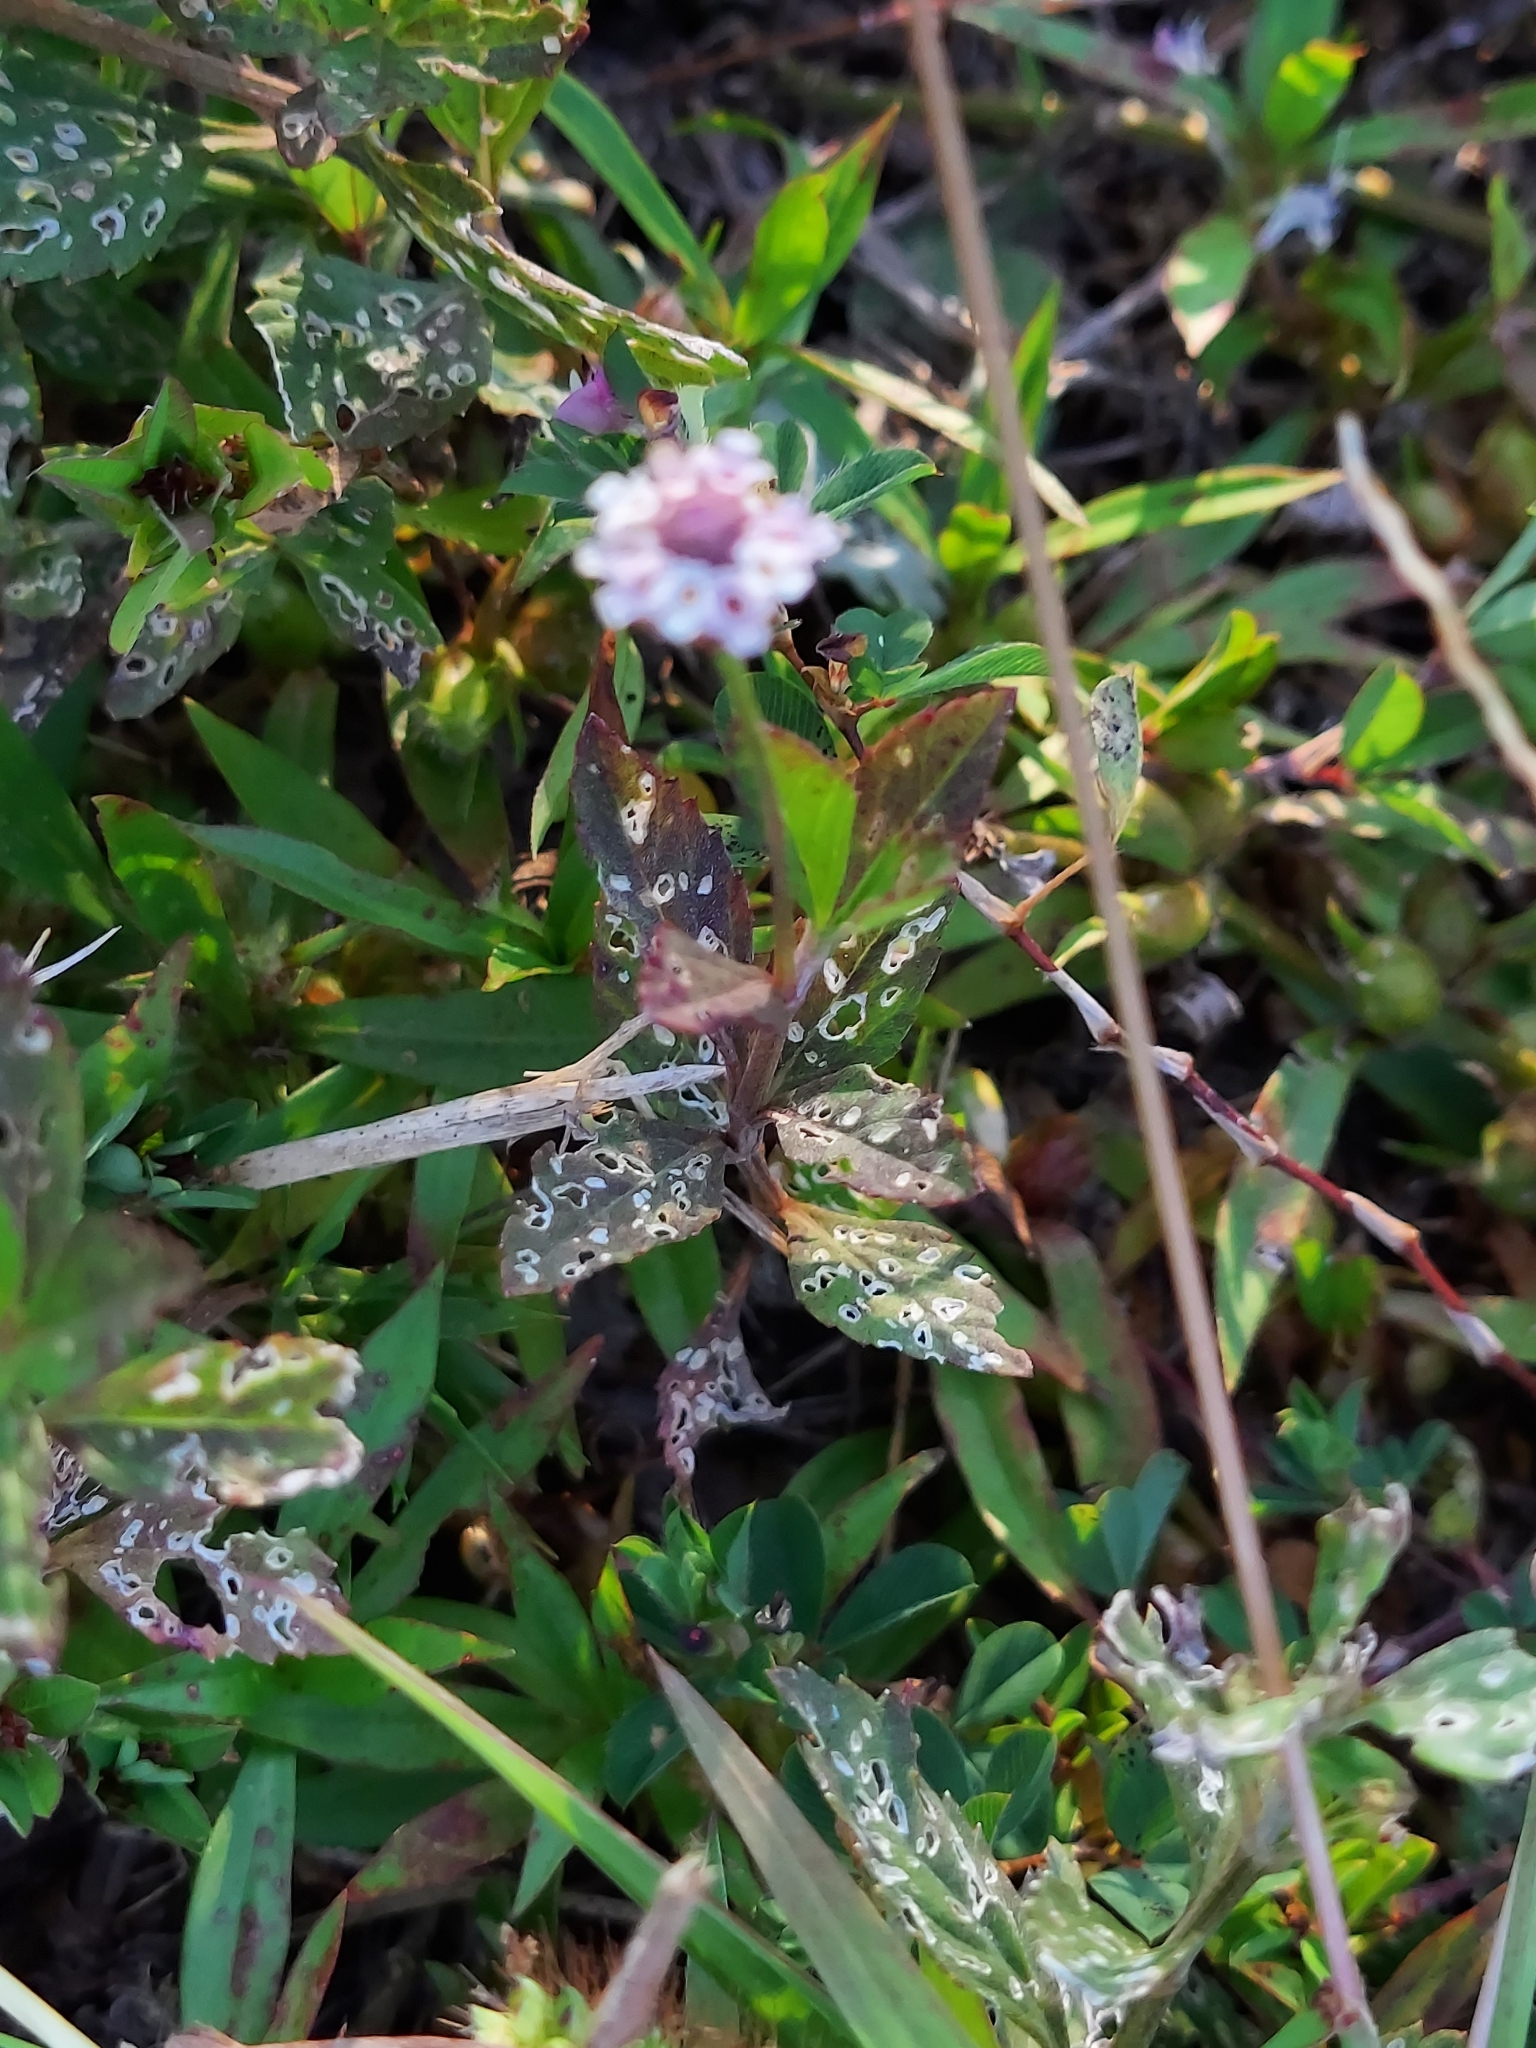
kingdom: Plantae
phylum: Tracheophyta
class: Magnoliopsida
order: Lamiales
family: Verbenaceae
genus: Phyla
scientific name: Phyla lanceolata
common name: Northern fogfruit
